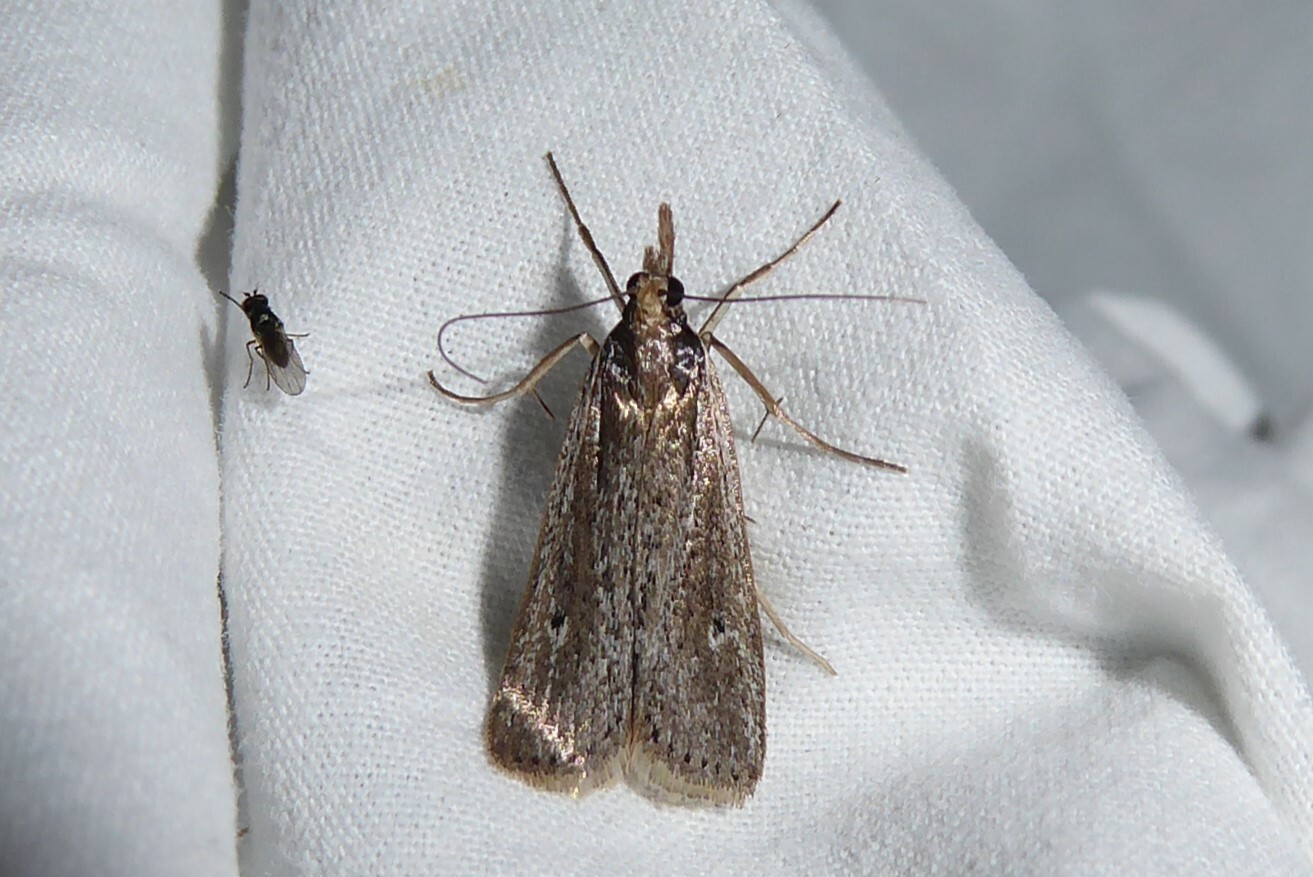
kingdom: Animalia
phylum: Arthropoda
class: Insecta
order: Lepidoptera
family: Crambidae
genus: Eudonia
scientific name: Eudonia sabulosella
